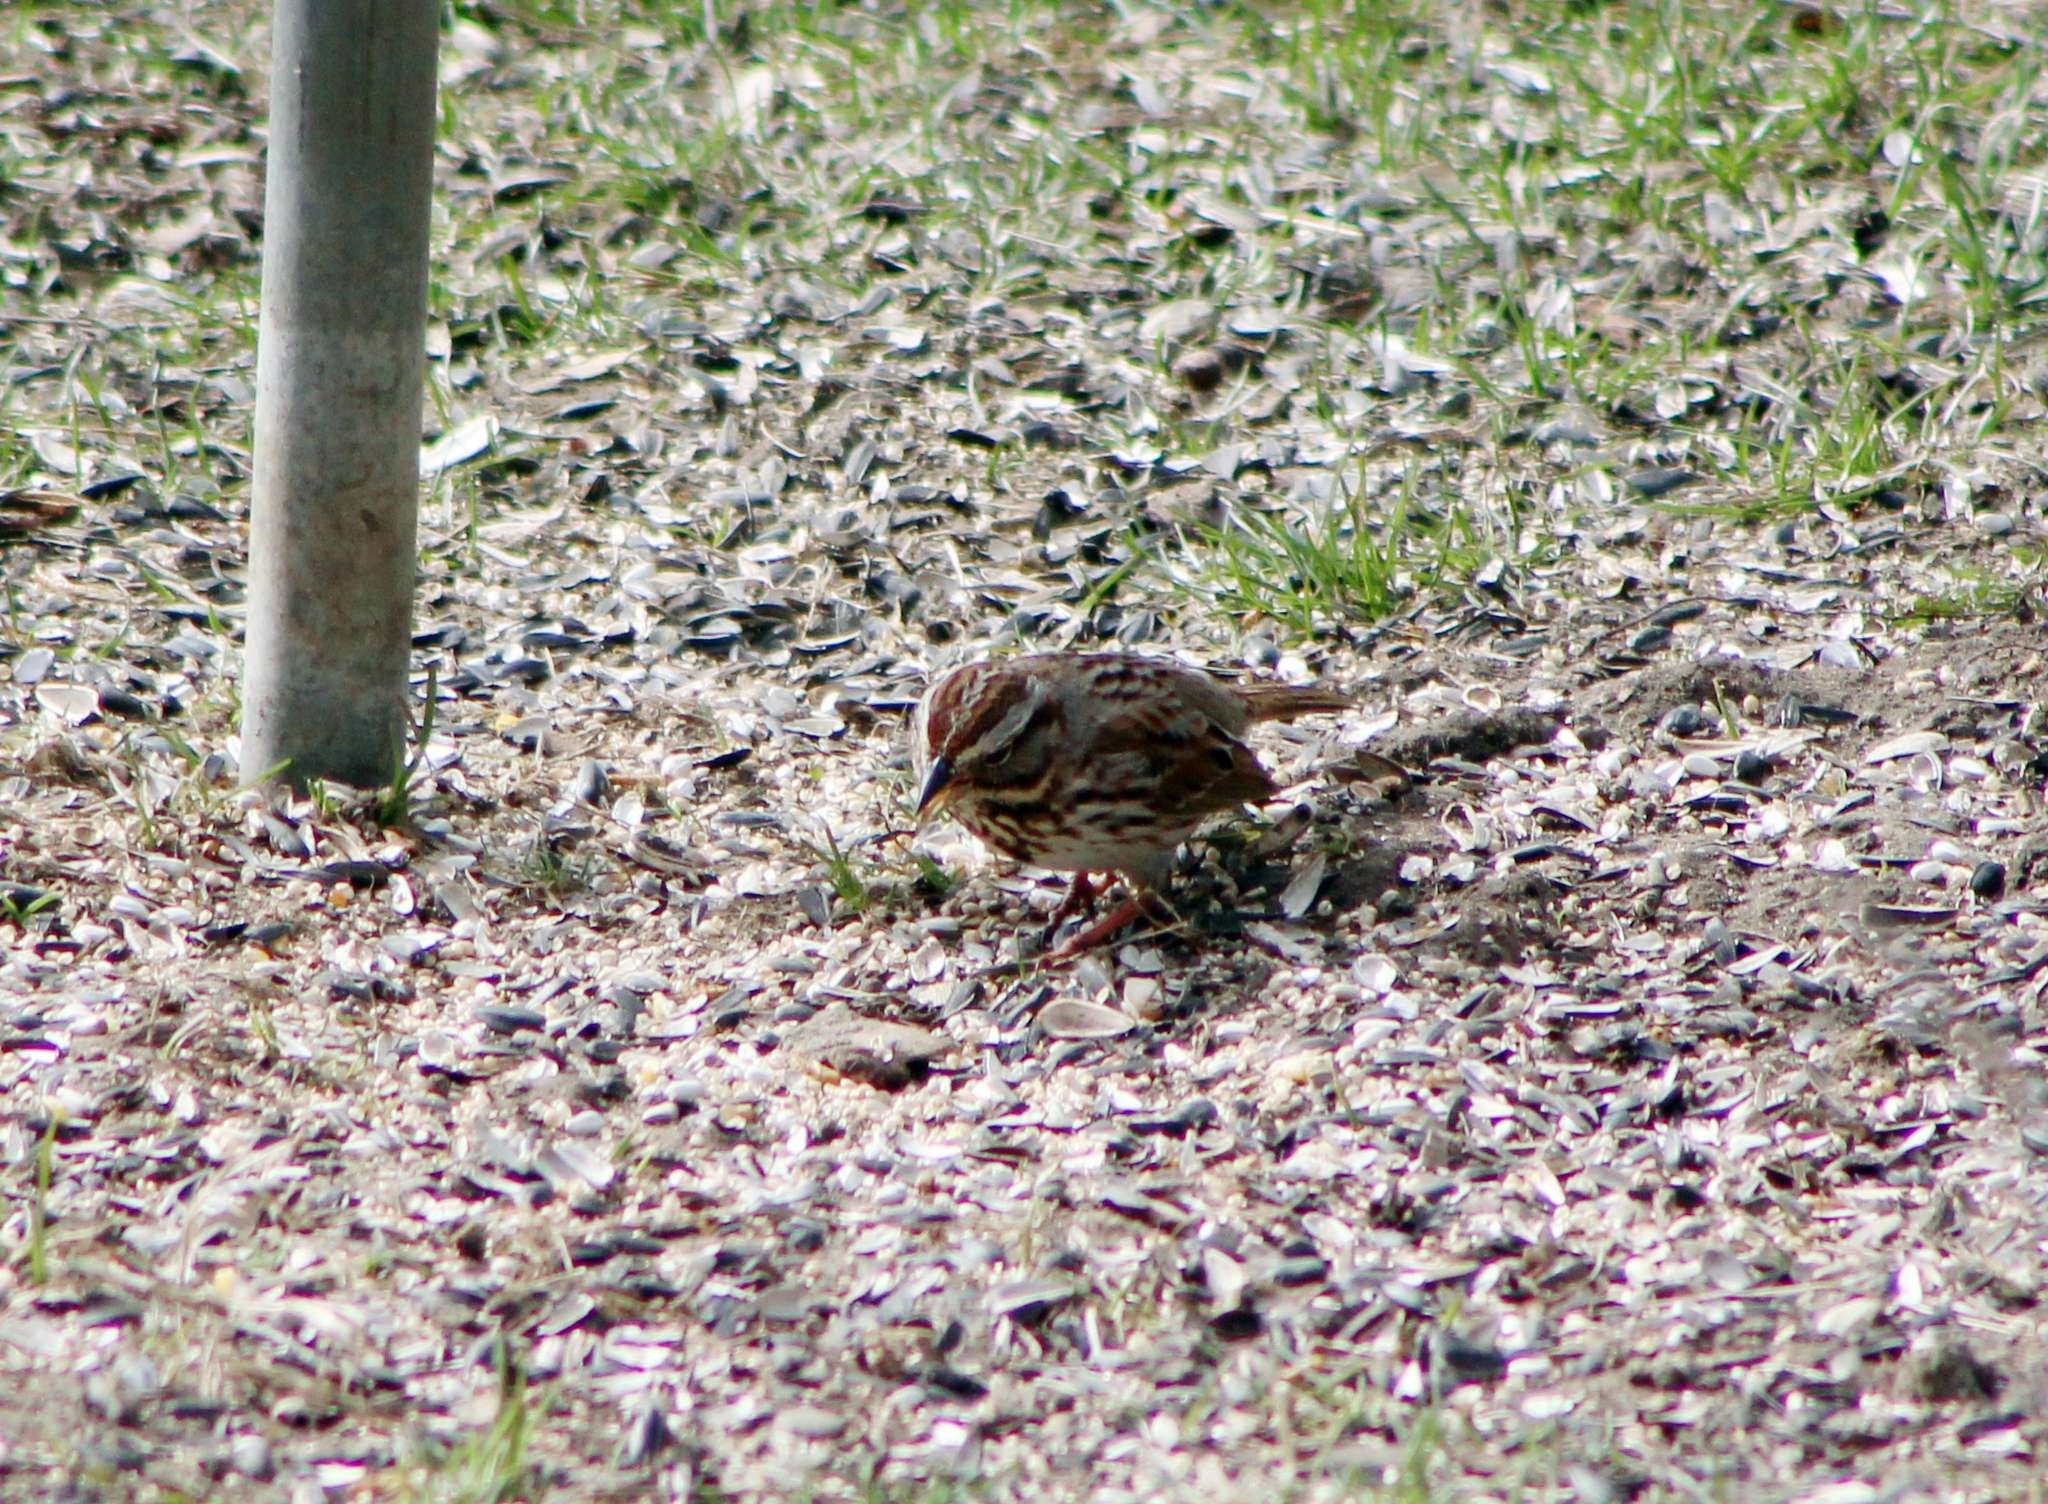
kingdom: Animalia
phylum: Chordata
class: Aves
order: Passeriformes
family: Passerellidae
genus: Melospiza
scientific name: Melospiza melodia
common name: Song sparrow
